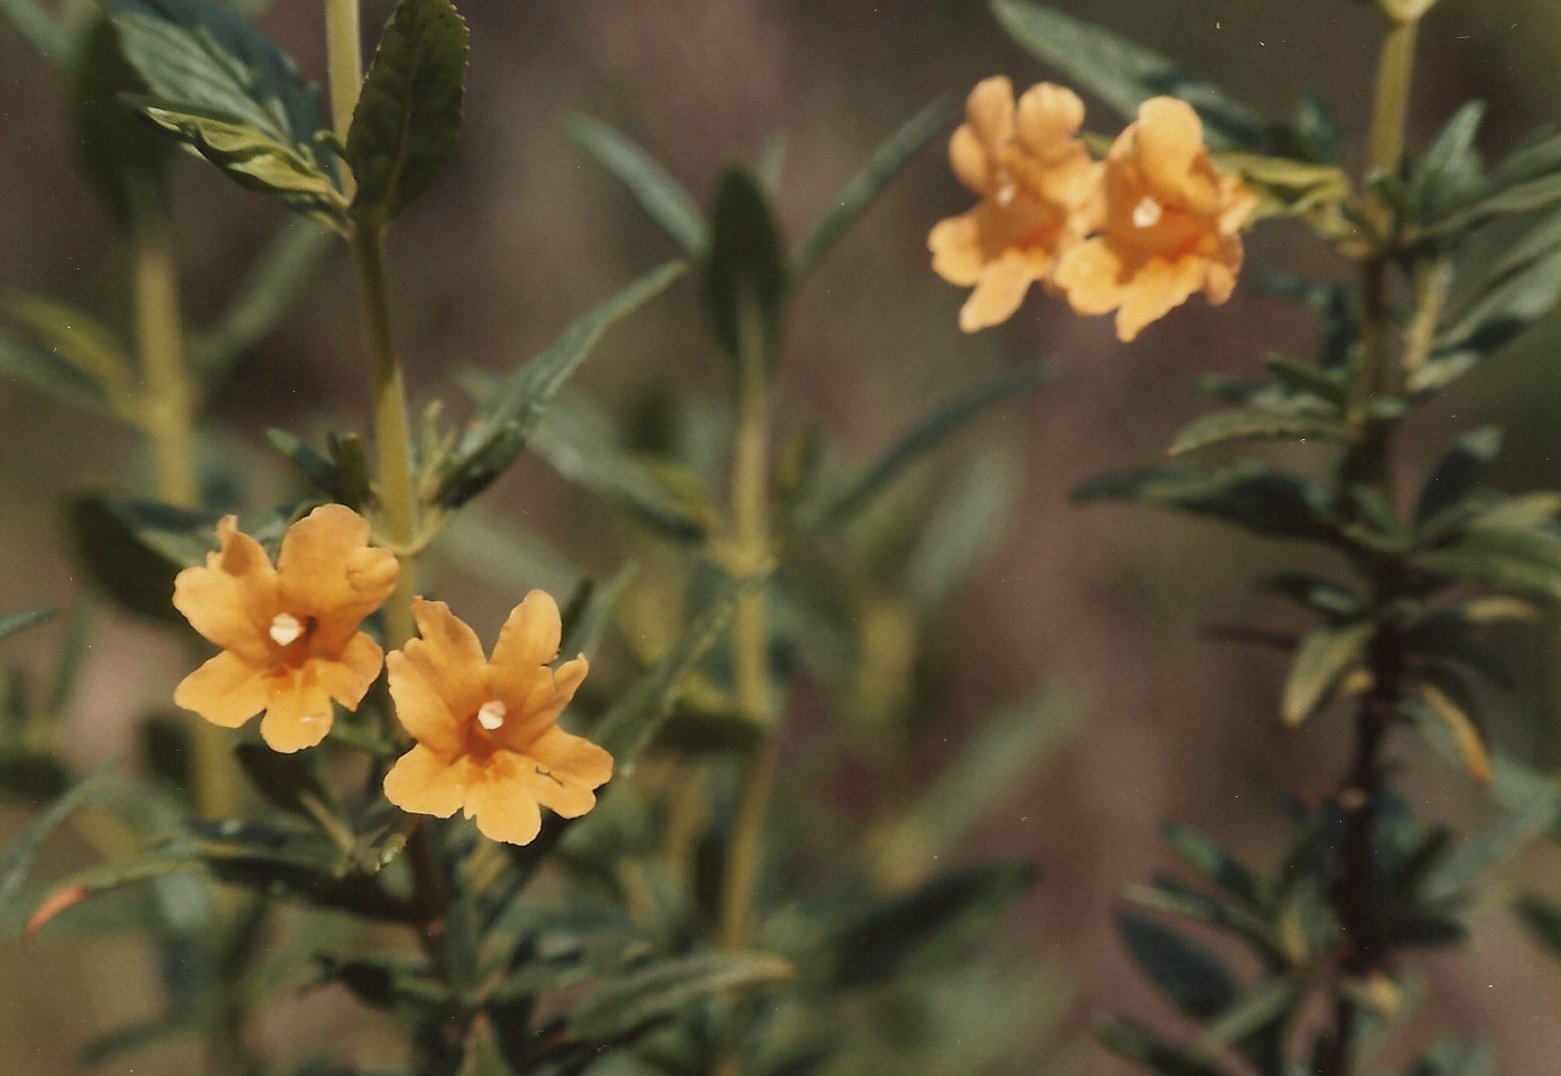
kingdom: Plantae
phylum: Tracheophyta
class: Magnoliopsida
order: Lamiales
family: Phrymaceae
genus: Diplacus
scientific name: Diplacus aurantiacus
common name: Bush monkey-flower
